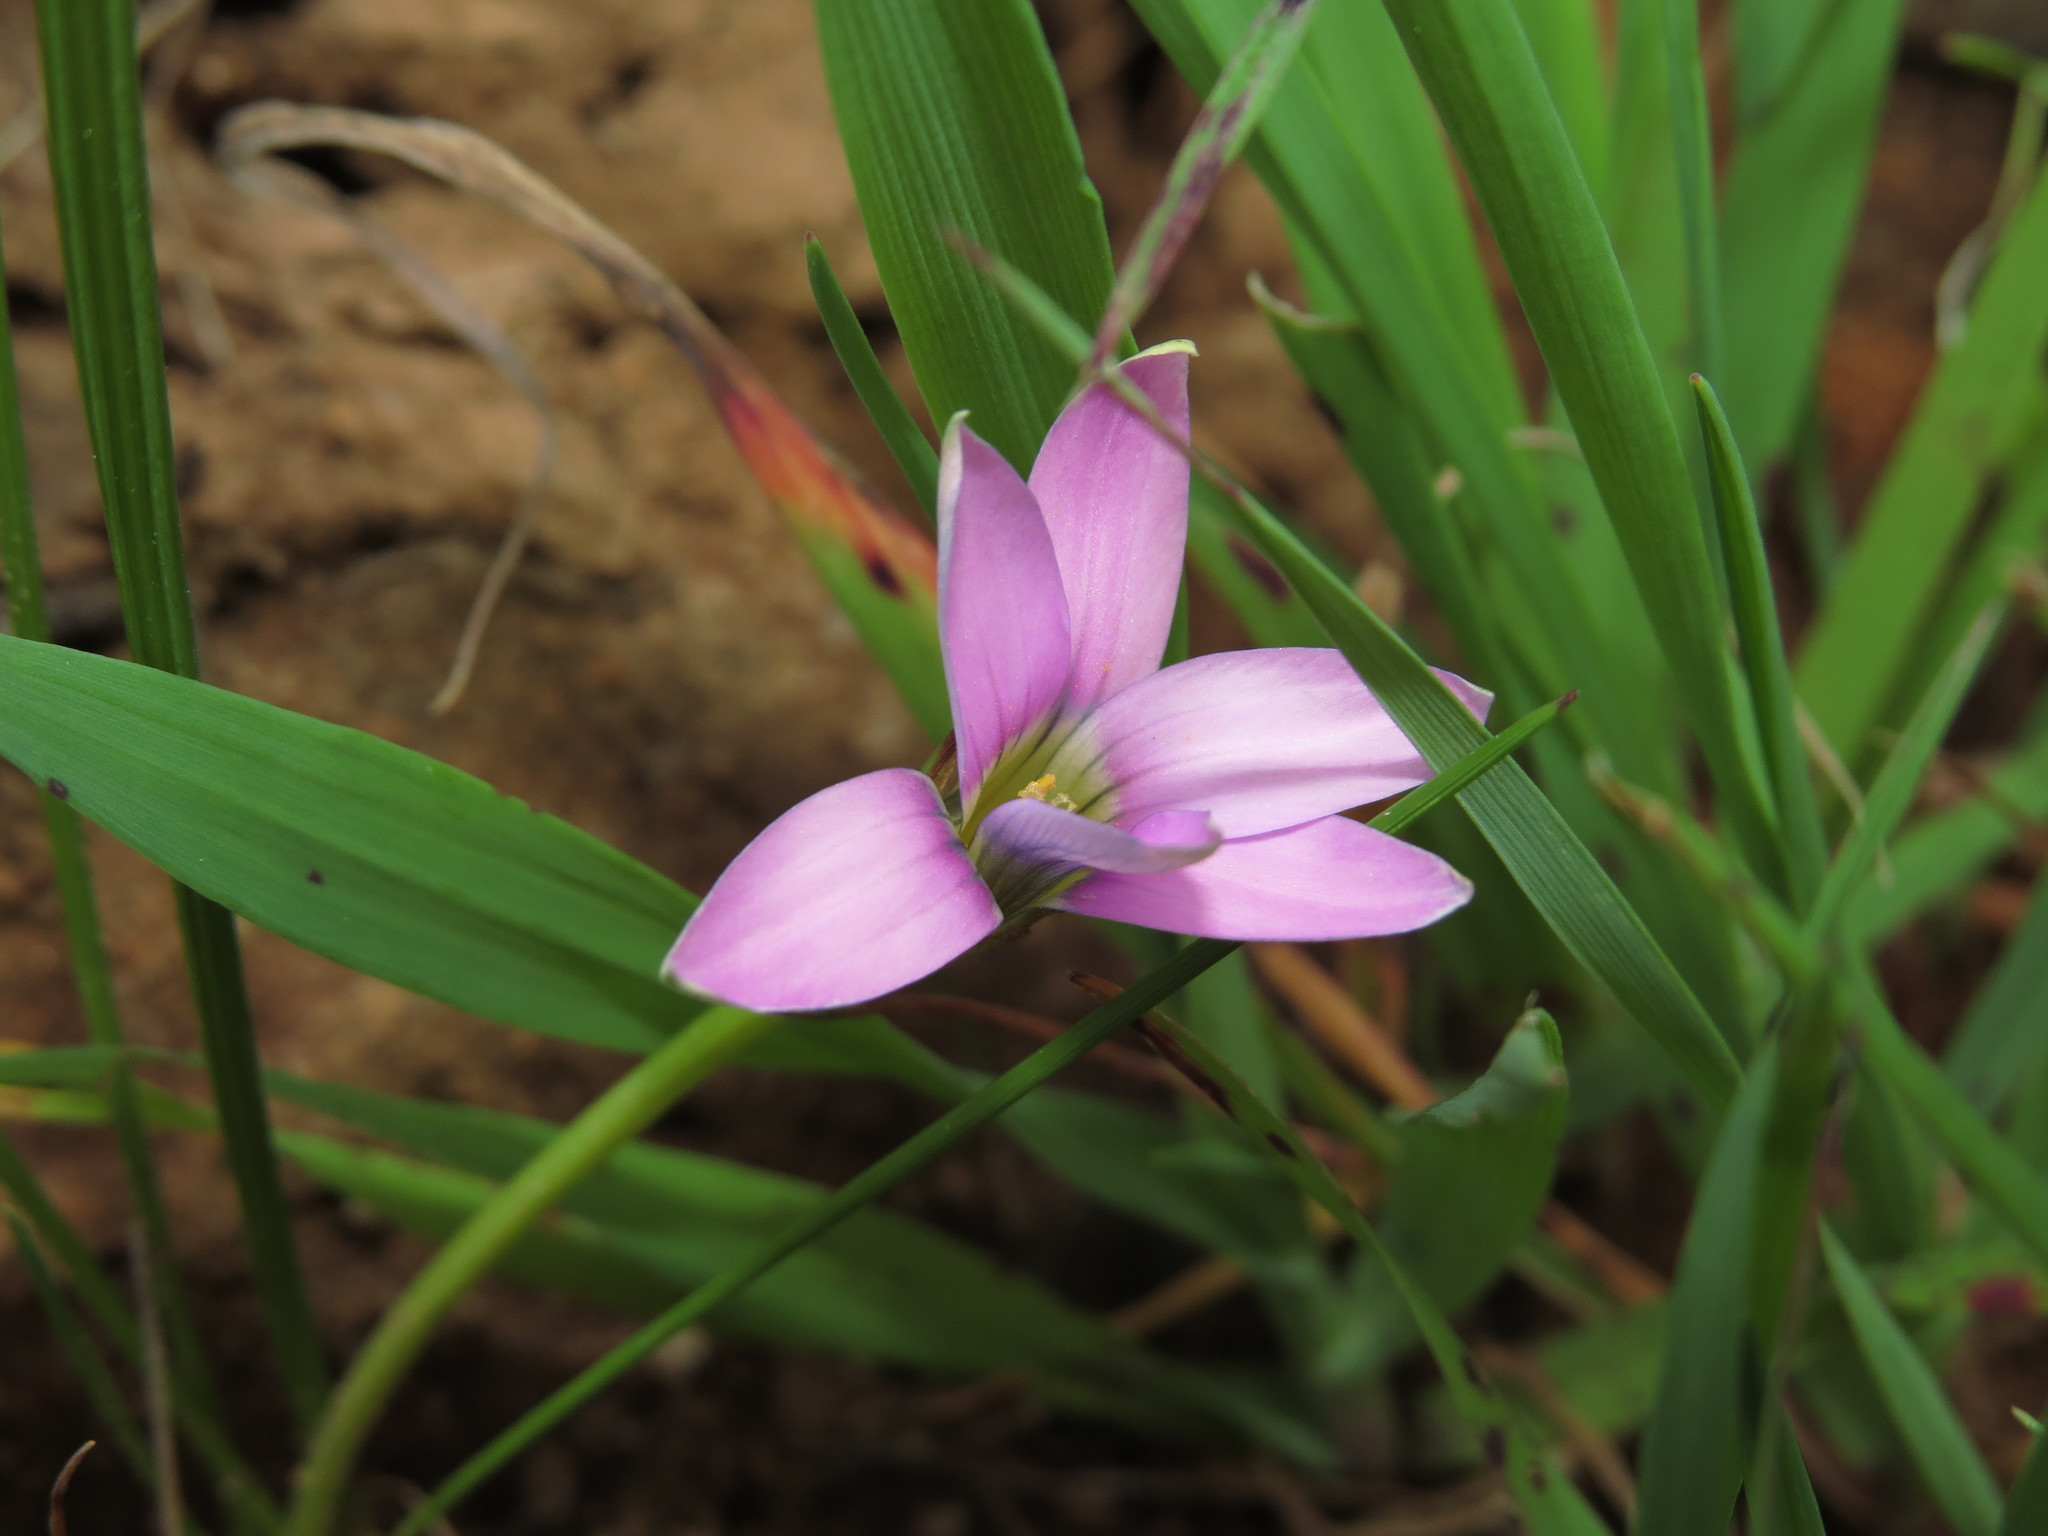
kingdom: Plantae
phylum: Tracheophyta
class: Liliopsida
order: Asparagales
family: Iridaceae
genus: Romulea
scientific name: Romulea rosea
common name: Oniongrass
